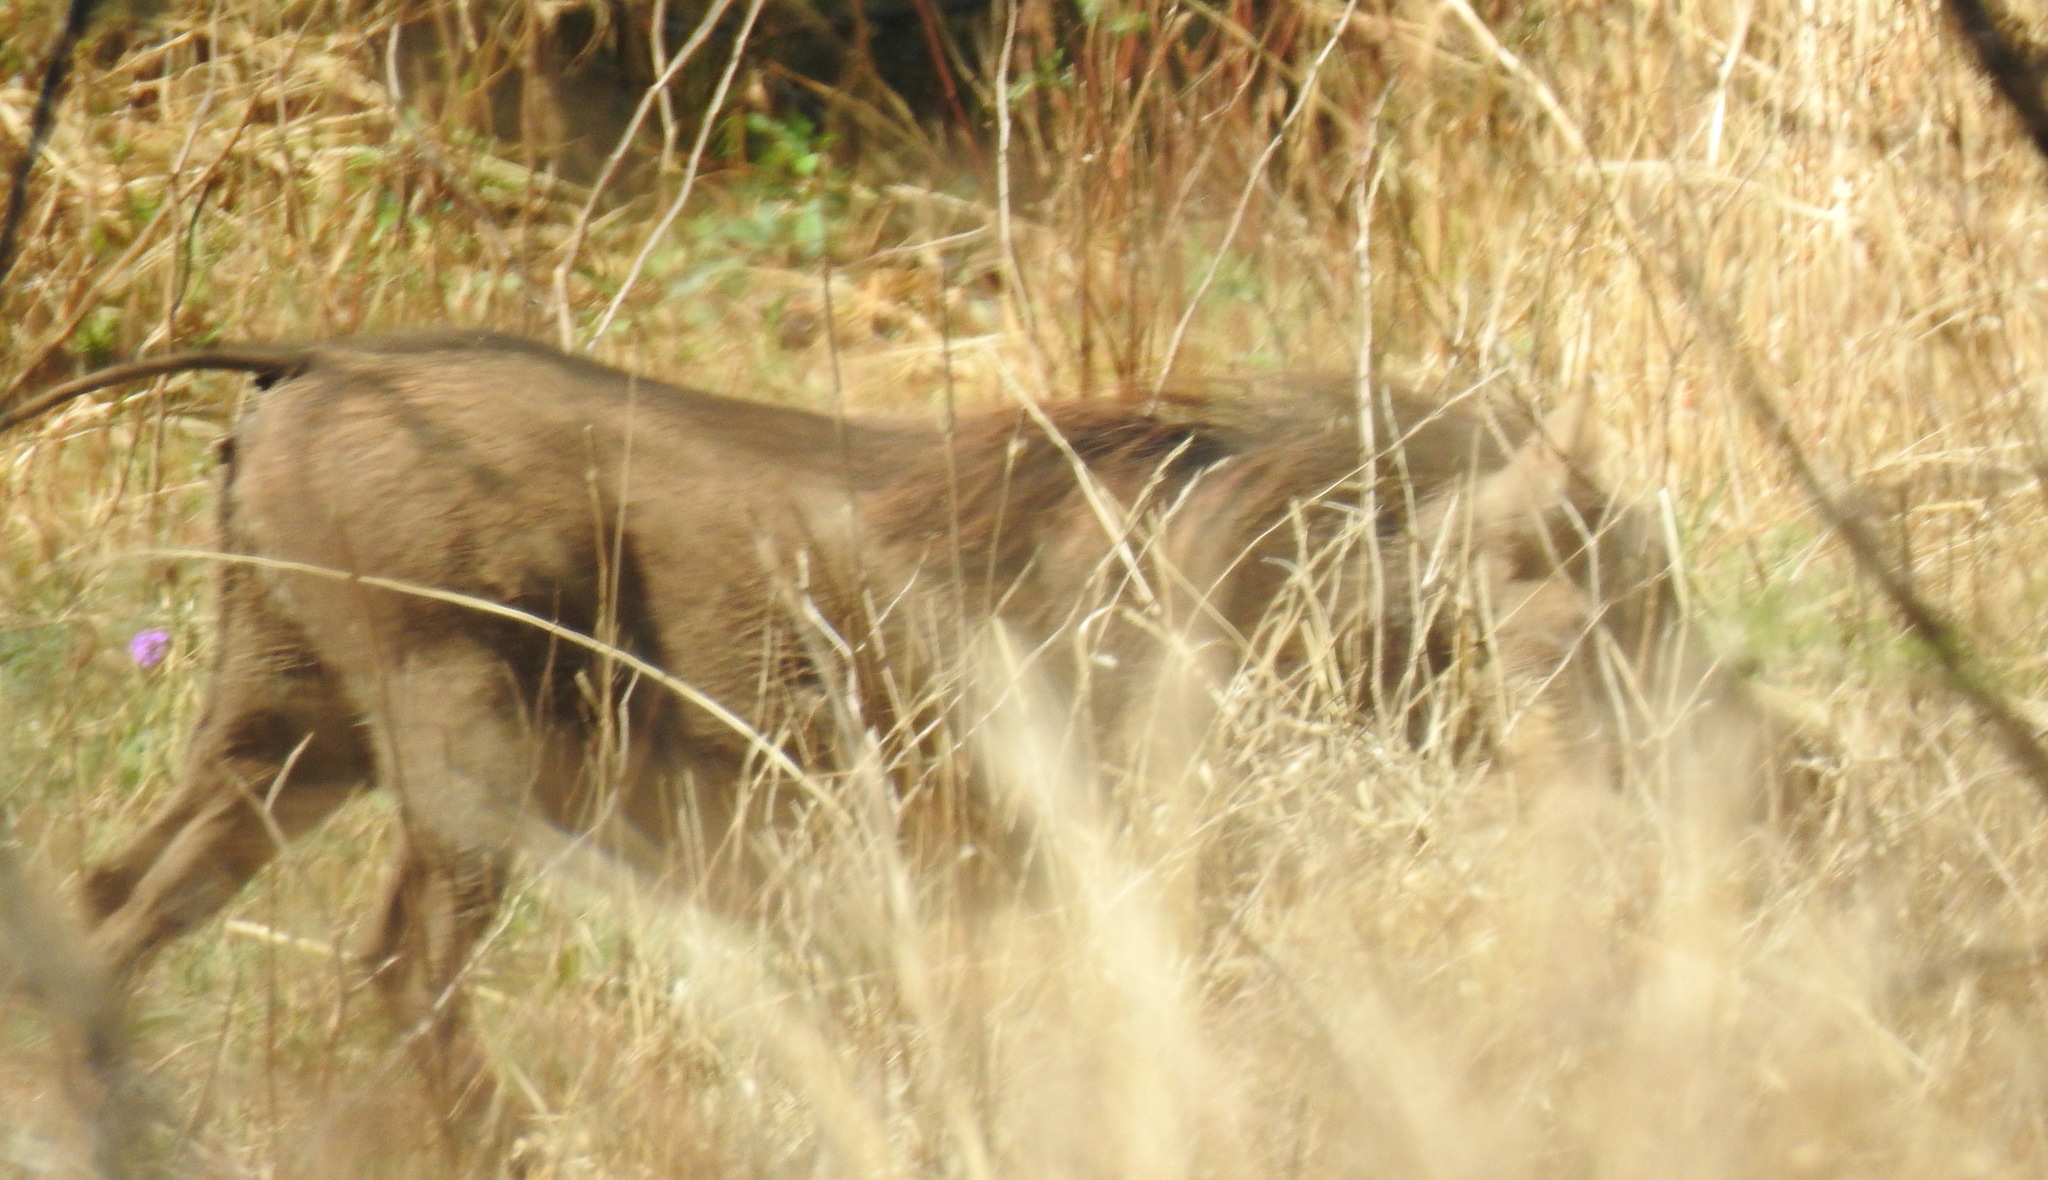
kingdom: Animalia
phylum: Chordata
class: Mammalia
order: Artiodactyla
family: Suidae
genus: Phacochoerus
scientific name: Phacochoerus africanus
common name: Common warthog
